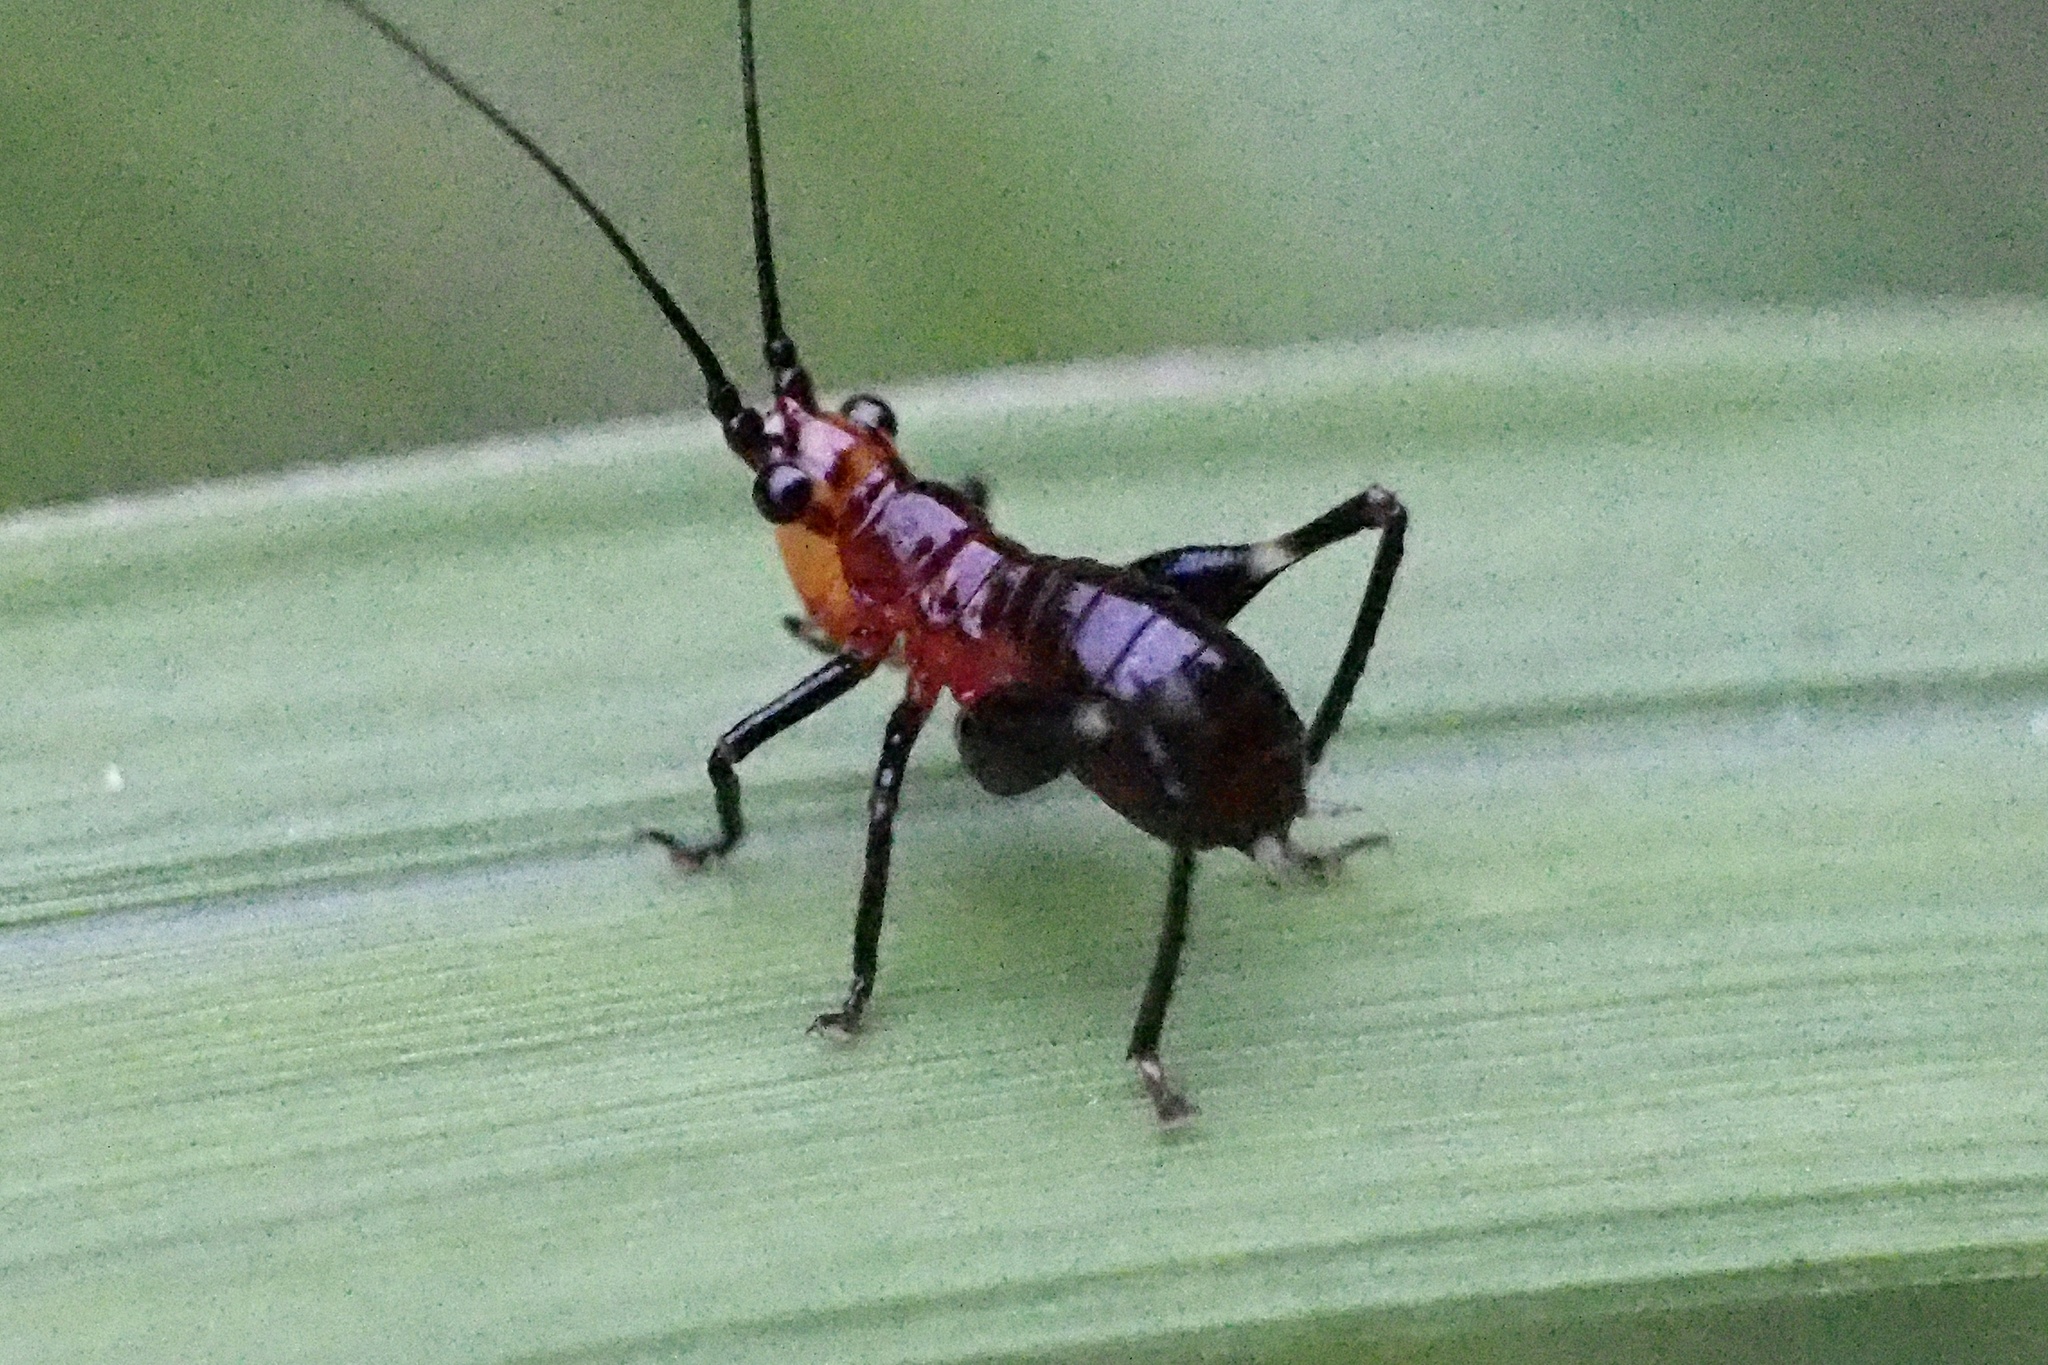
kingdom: Animalia
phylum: Arthropoda
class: Insecta
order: Orthoptera
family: Tettigoniidae
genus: Conocephalus
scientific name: Conocephalus melaenus
